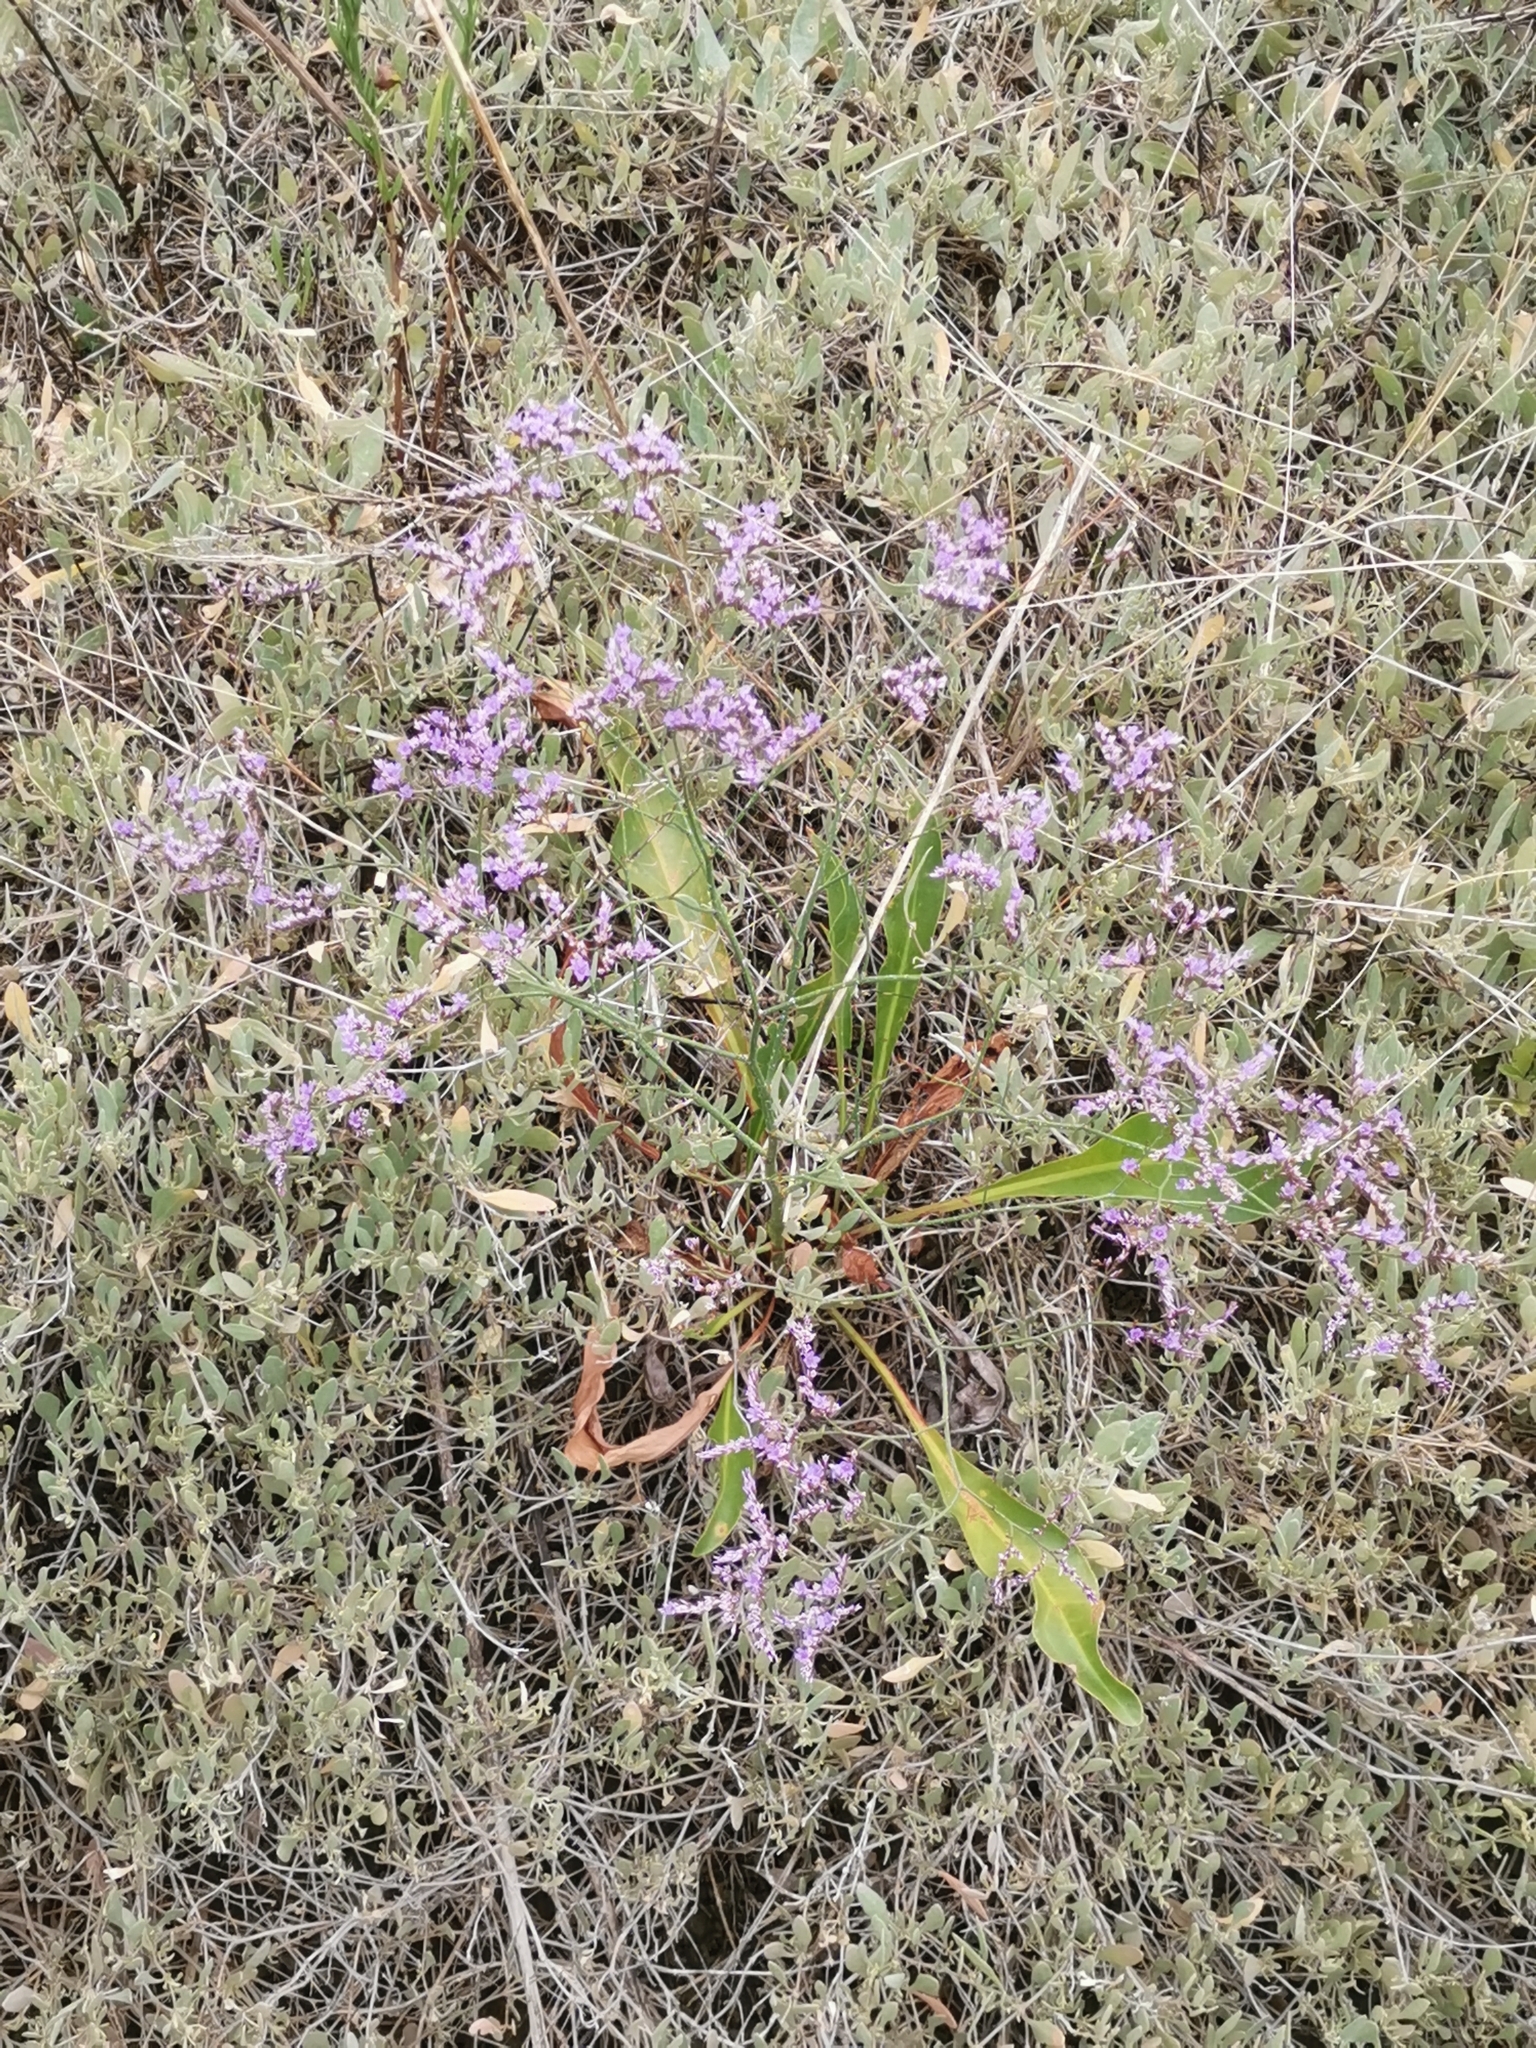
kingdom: Plantae
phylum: Tracheophyta
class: Magnoliopsida
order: Caryophyllales
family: Plumbaginaceae
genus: Limonium
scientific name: Limonium narbonense
